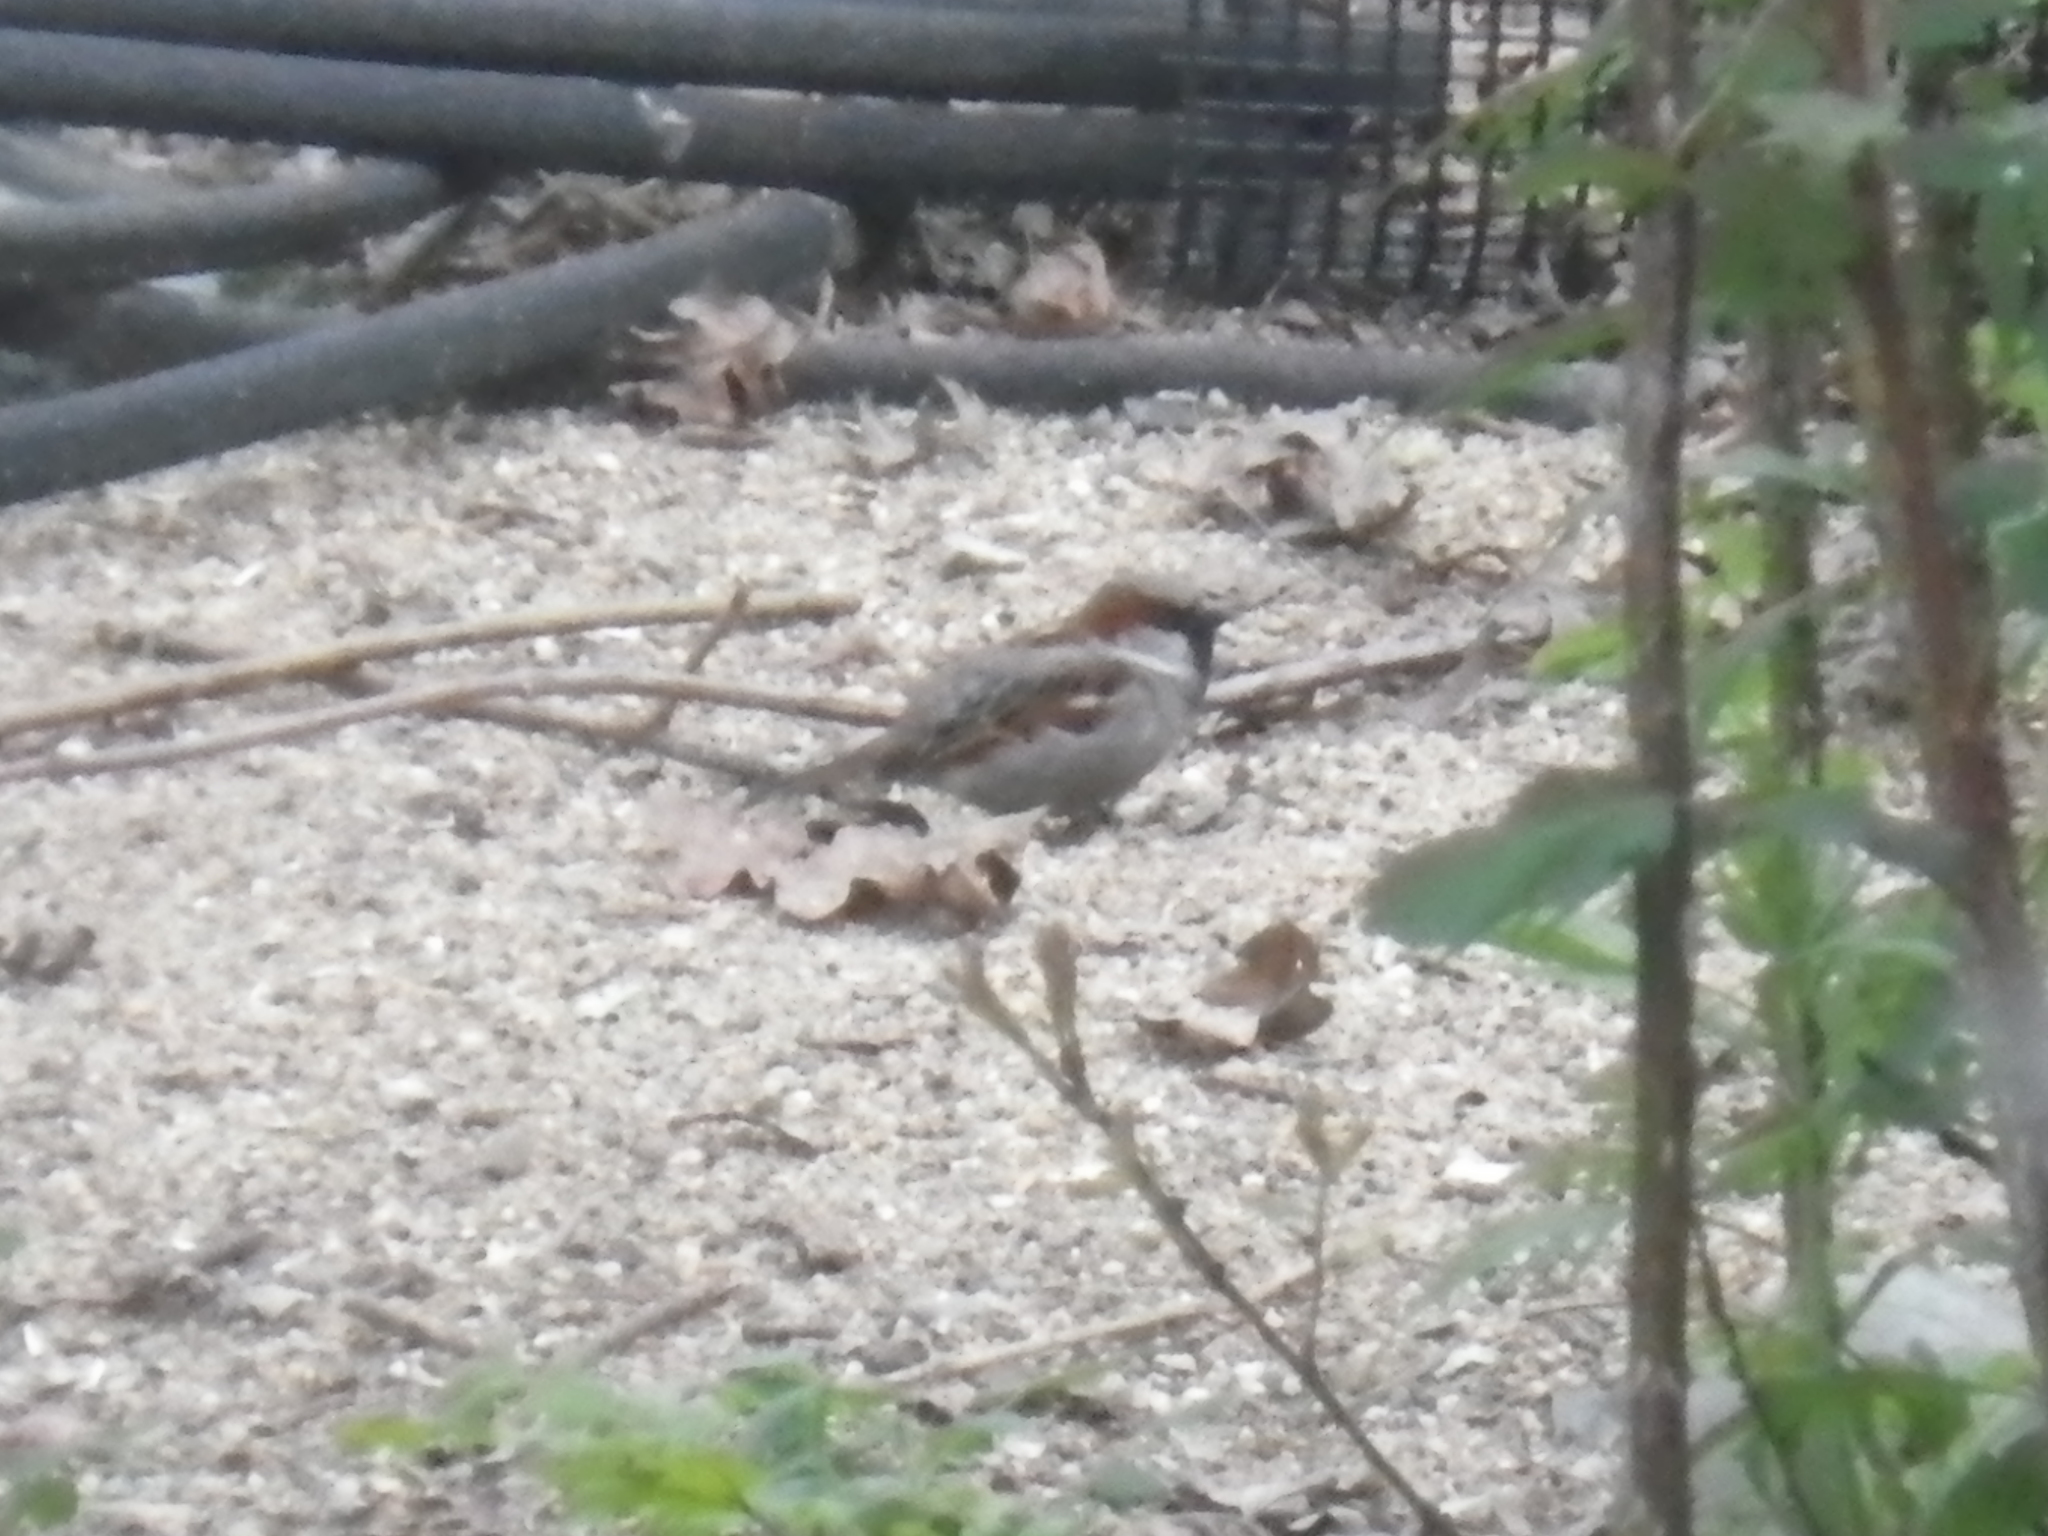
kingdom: Animalia
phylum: Chordata
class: Aves
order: Passeriformes
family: Passeridae
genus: Passer
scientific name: Passer domesticus
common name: House sparrow
